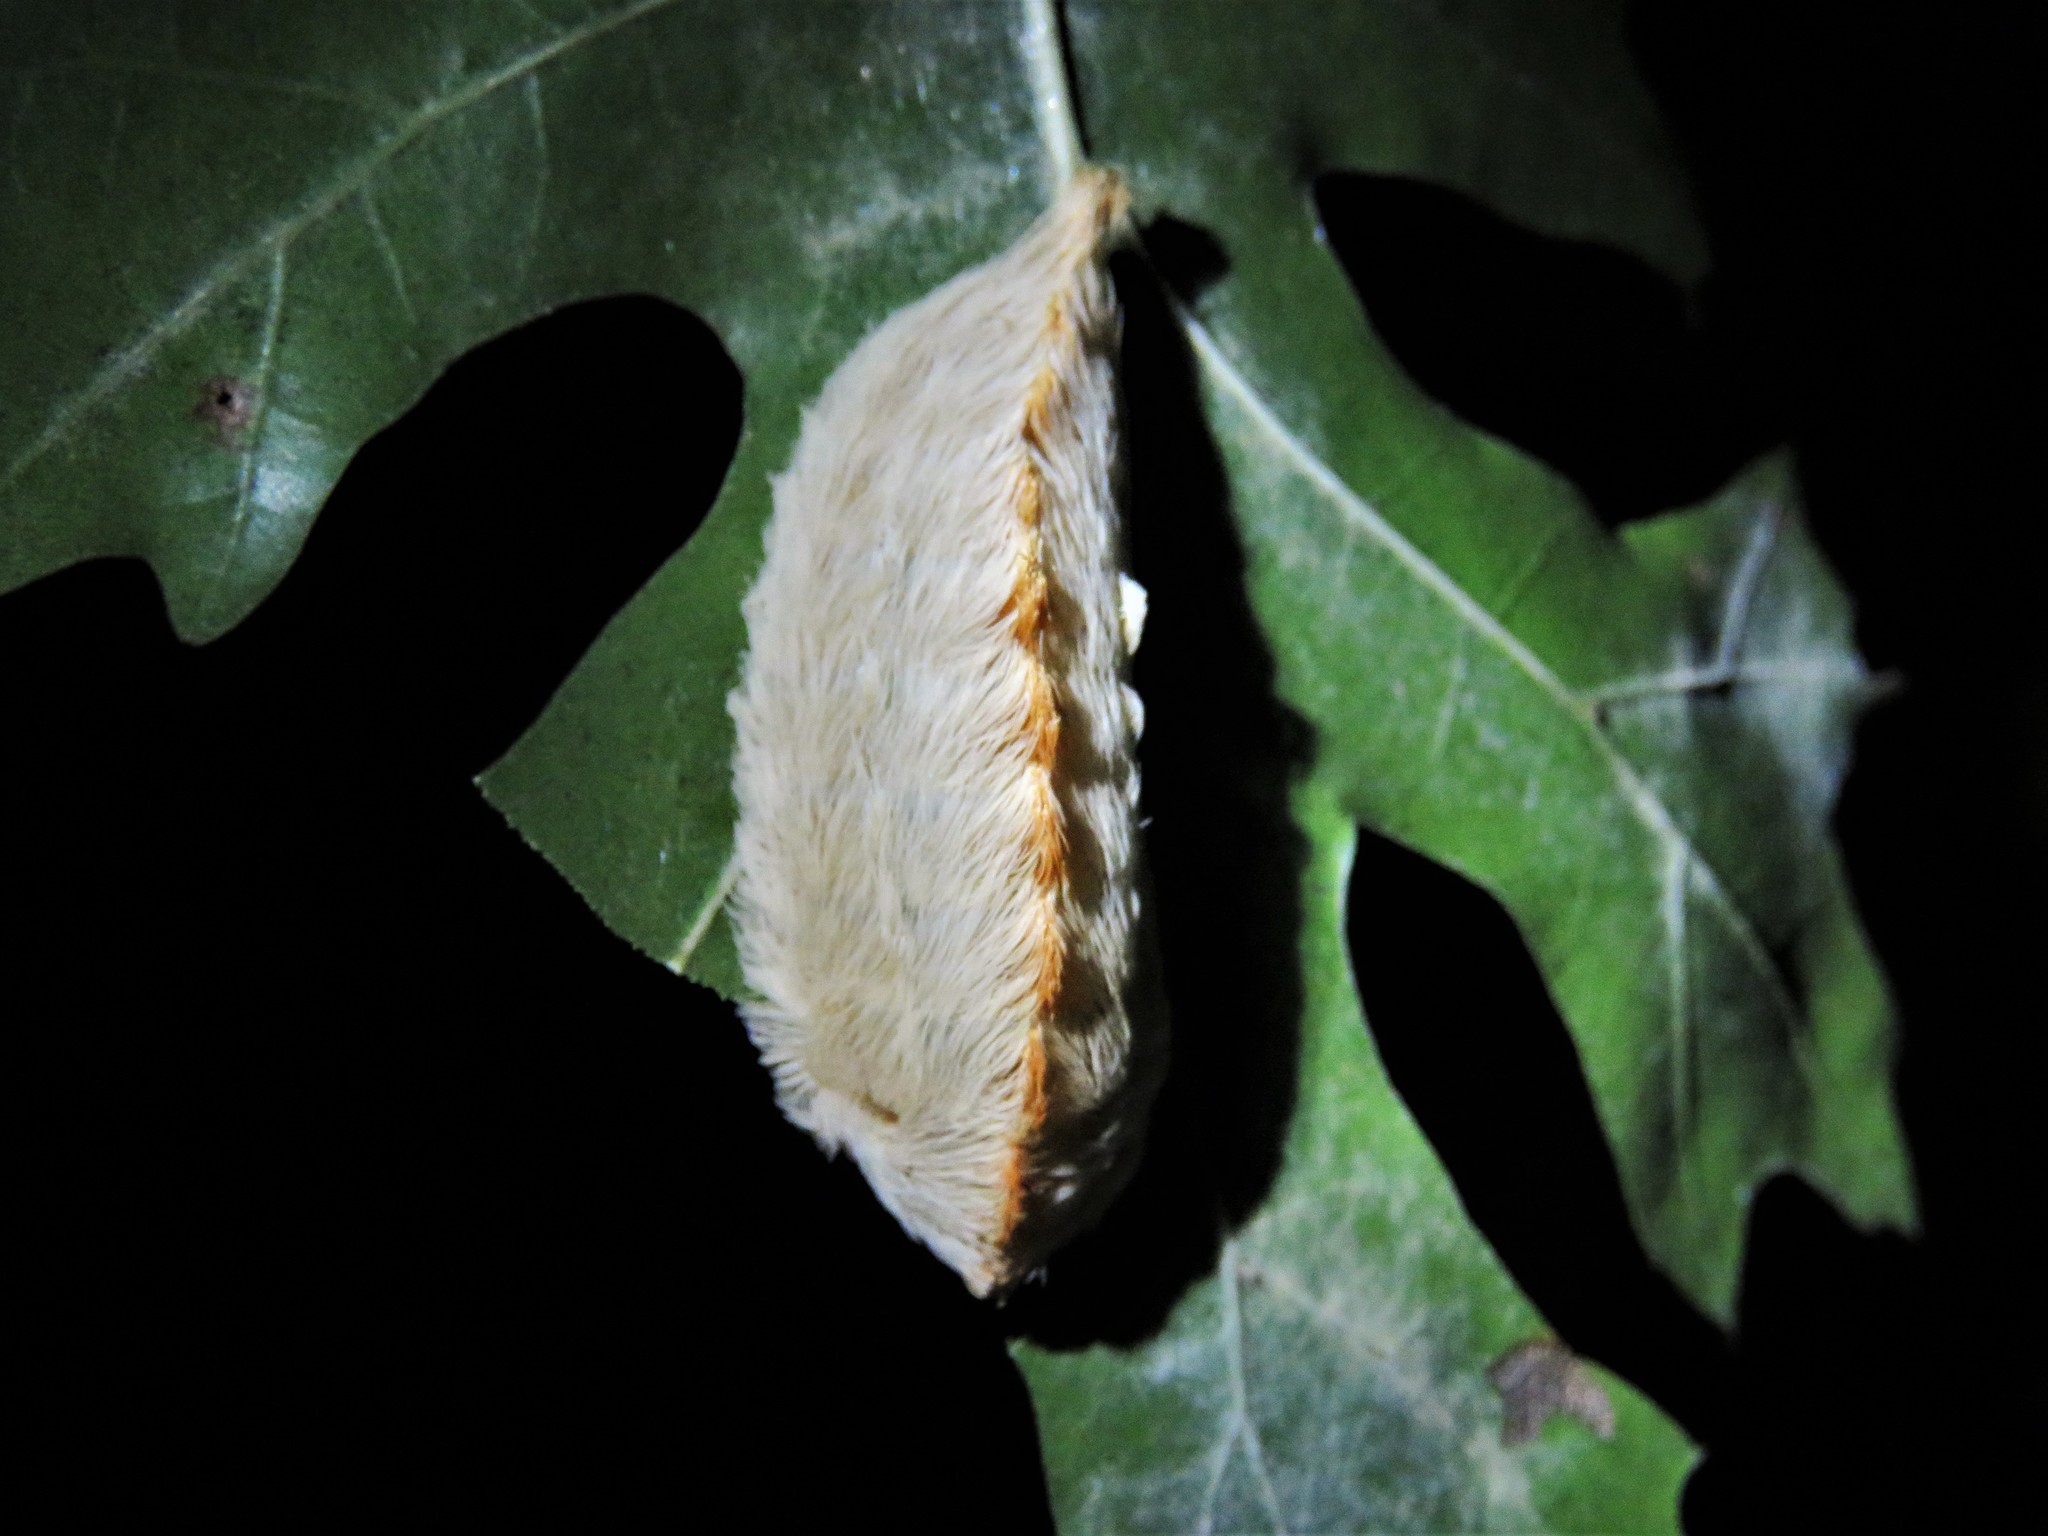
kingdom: Animalia
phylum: Arthropoda
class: Insecta
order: Lepidoptera
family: Megalopygidae
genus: Megalopyge
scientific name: Megalopyge opercularis
